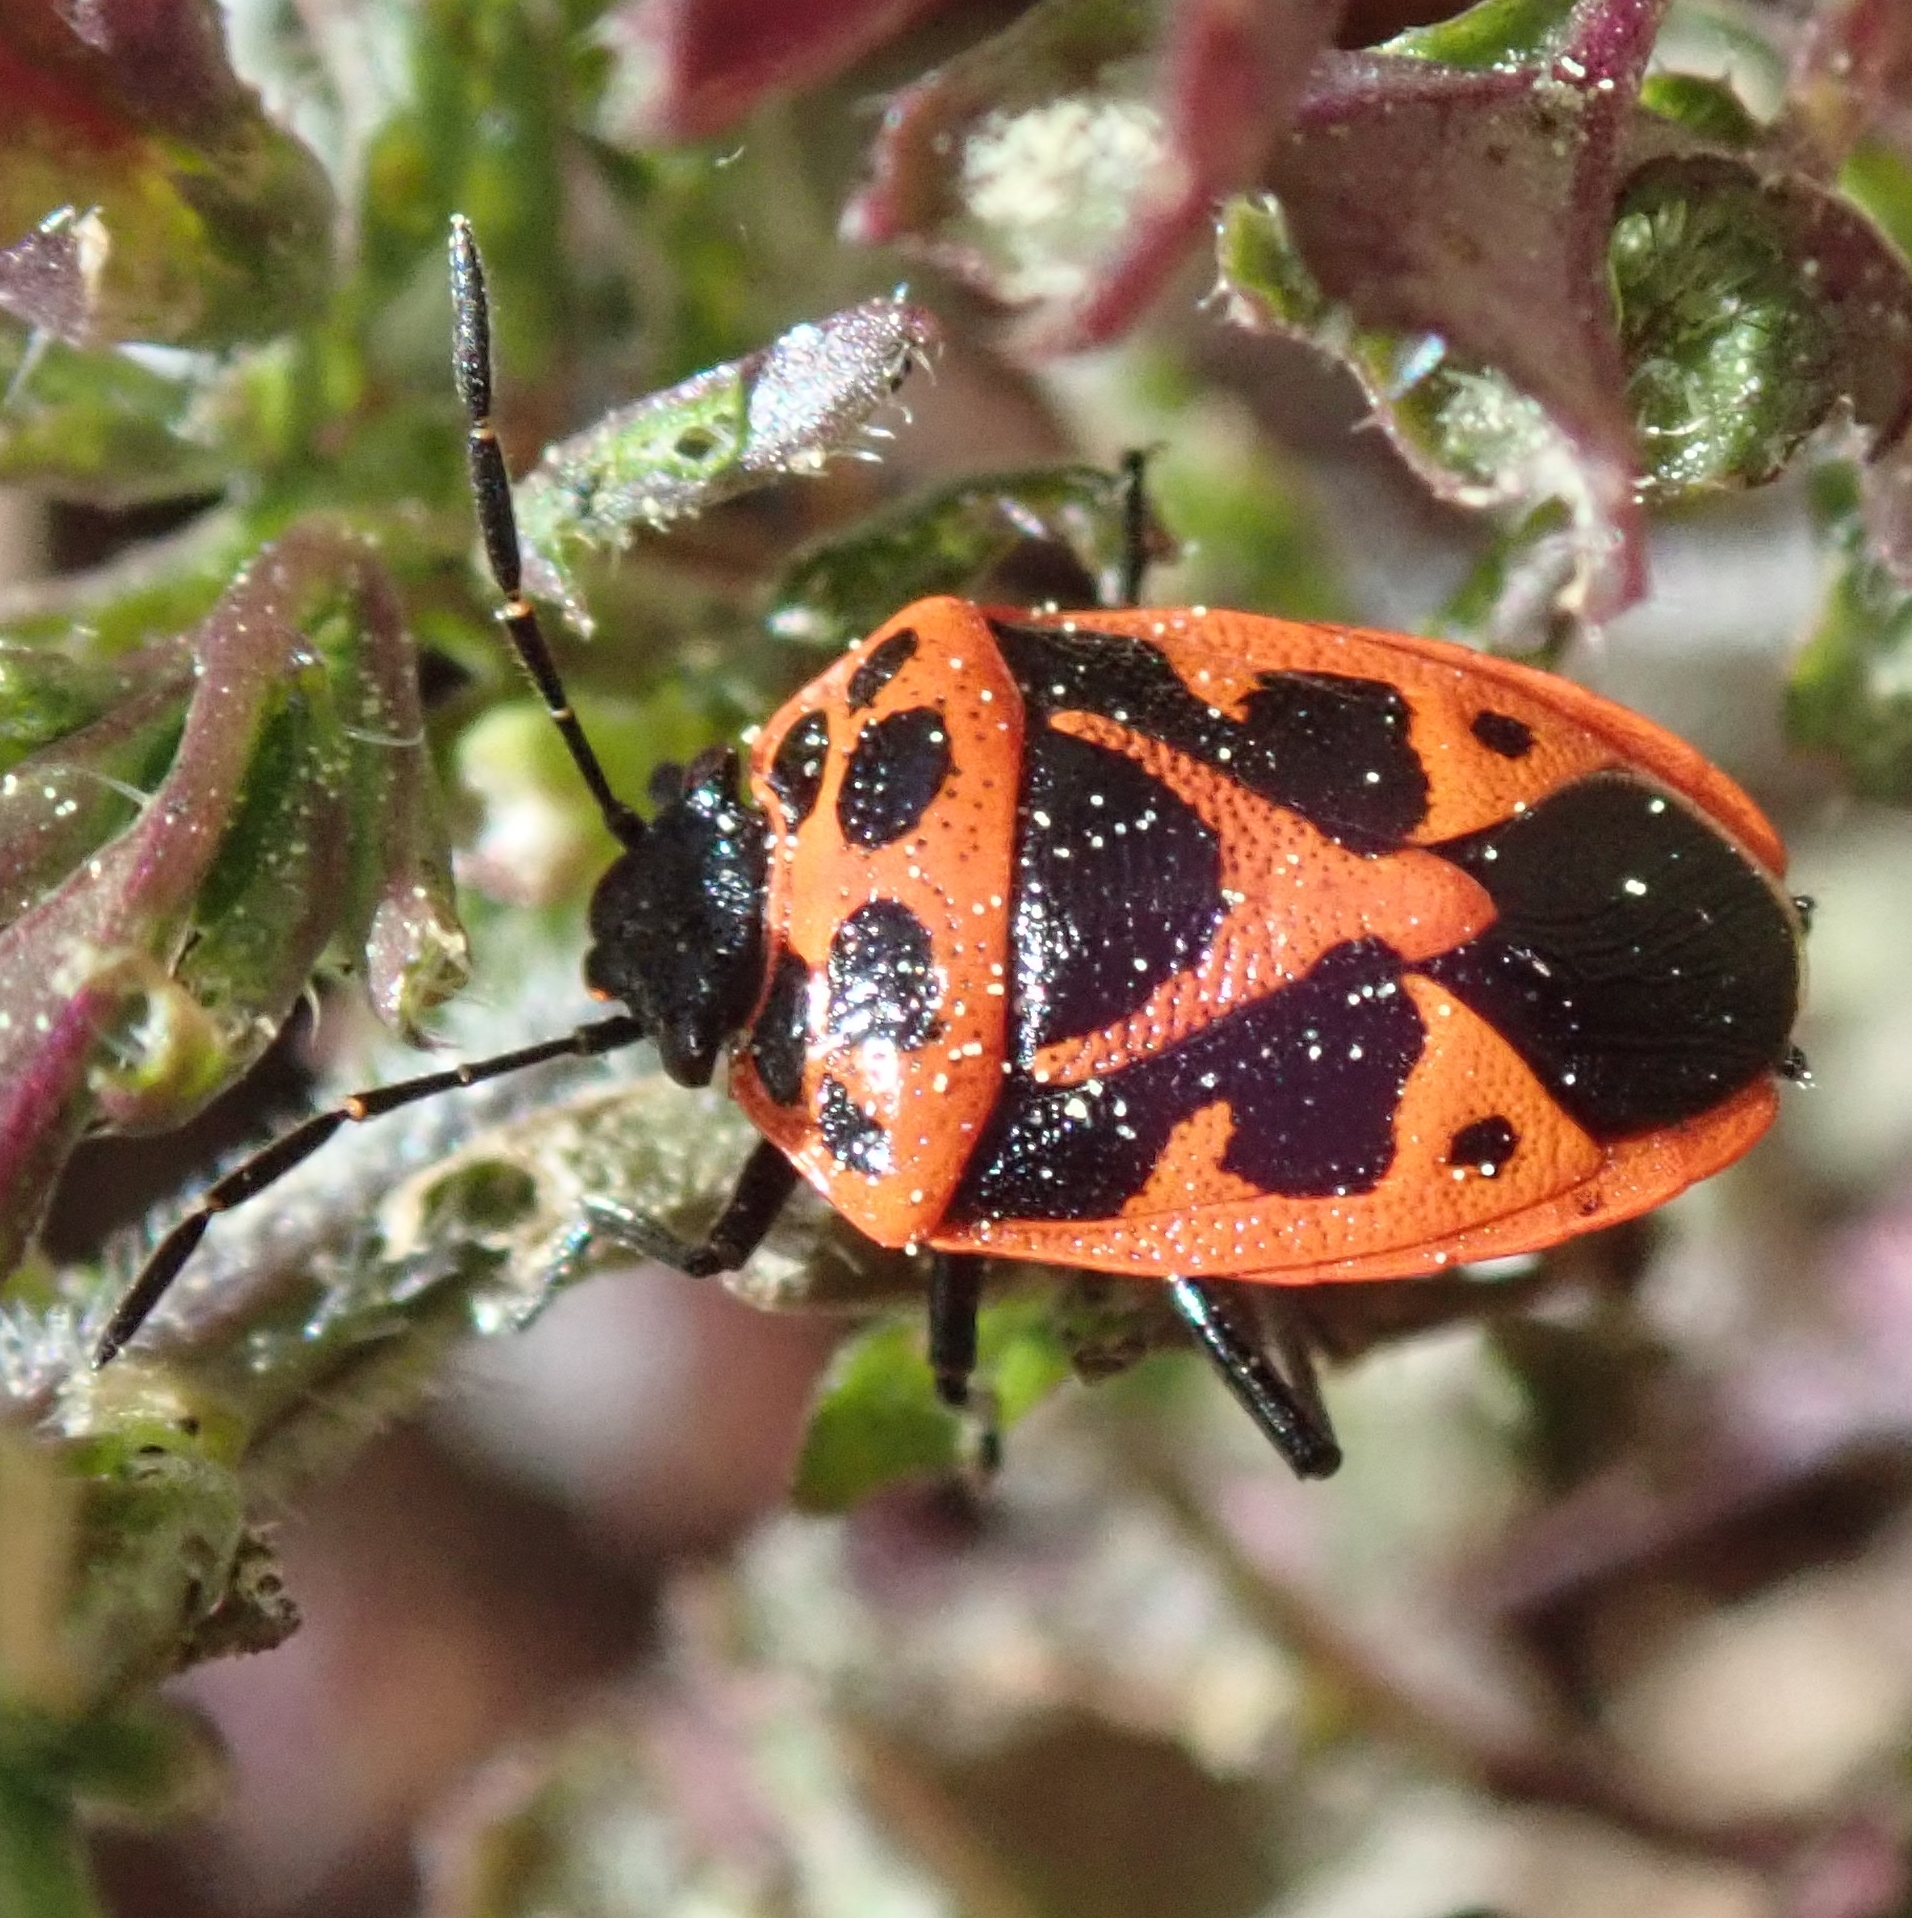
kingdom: Animalia
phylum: Arthropoda
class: Insecta
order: Hemiptera
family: Pentatomidae
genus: Eurydema
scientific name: Eurydema dominulus
